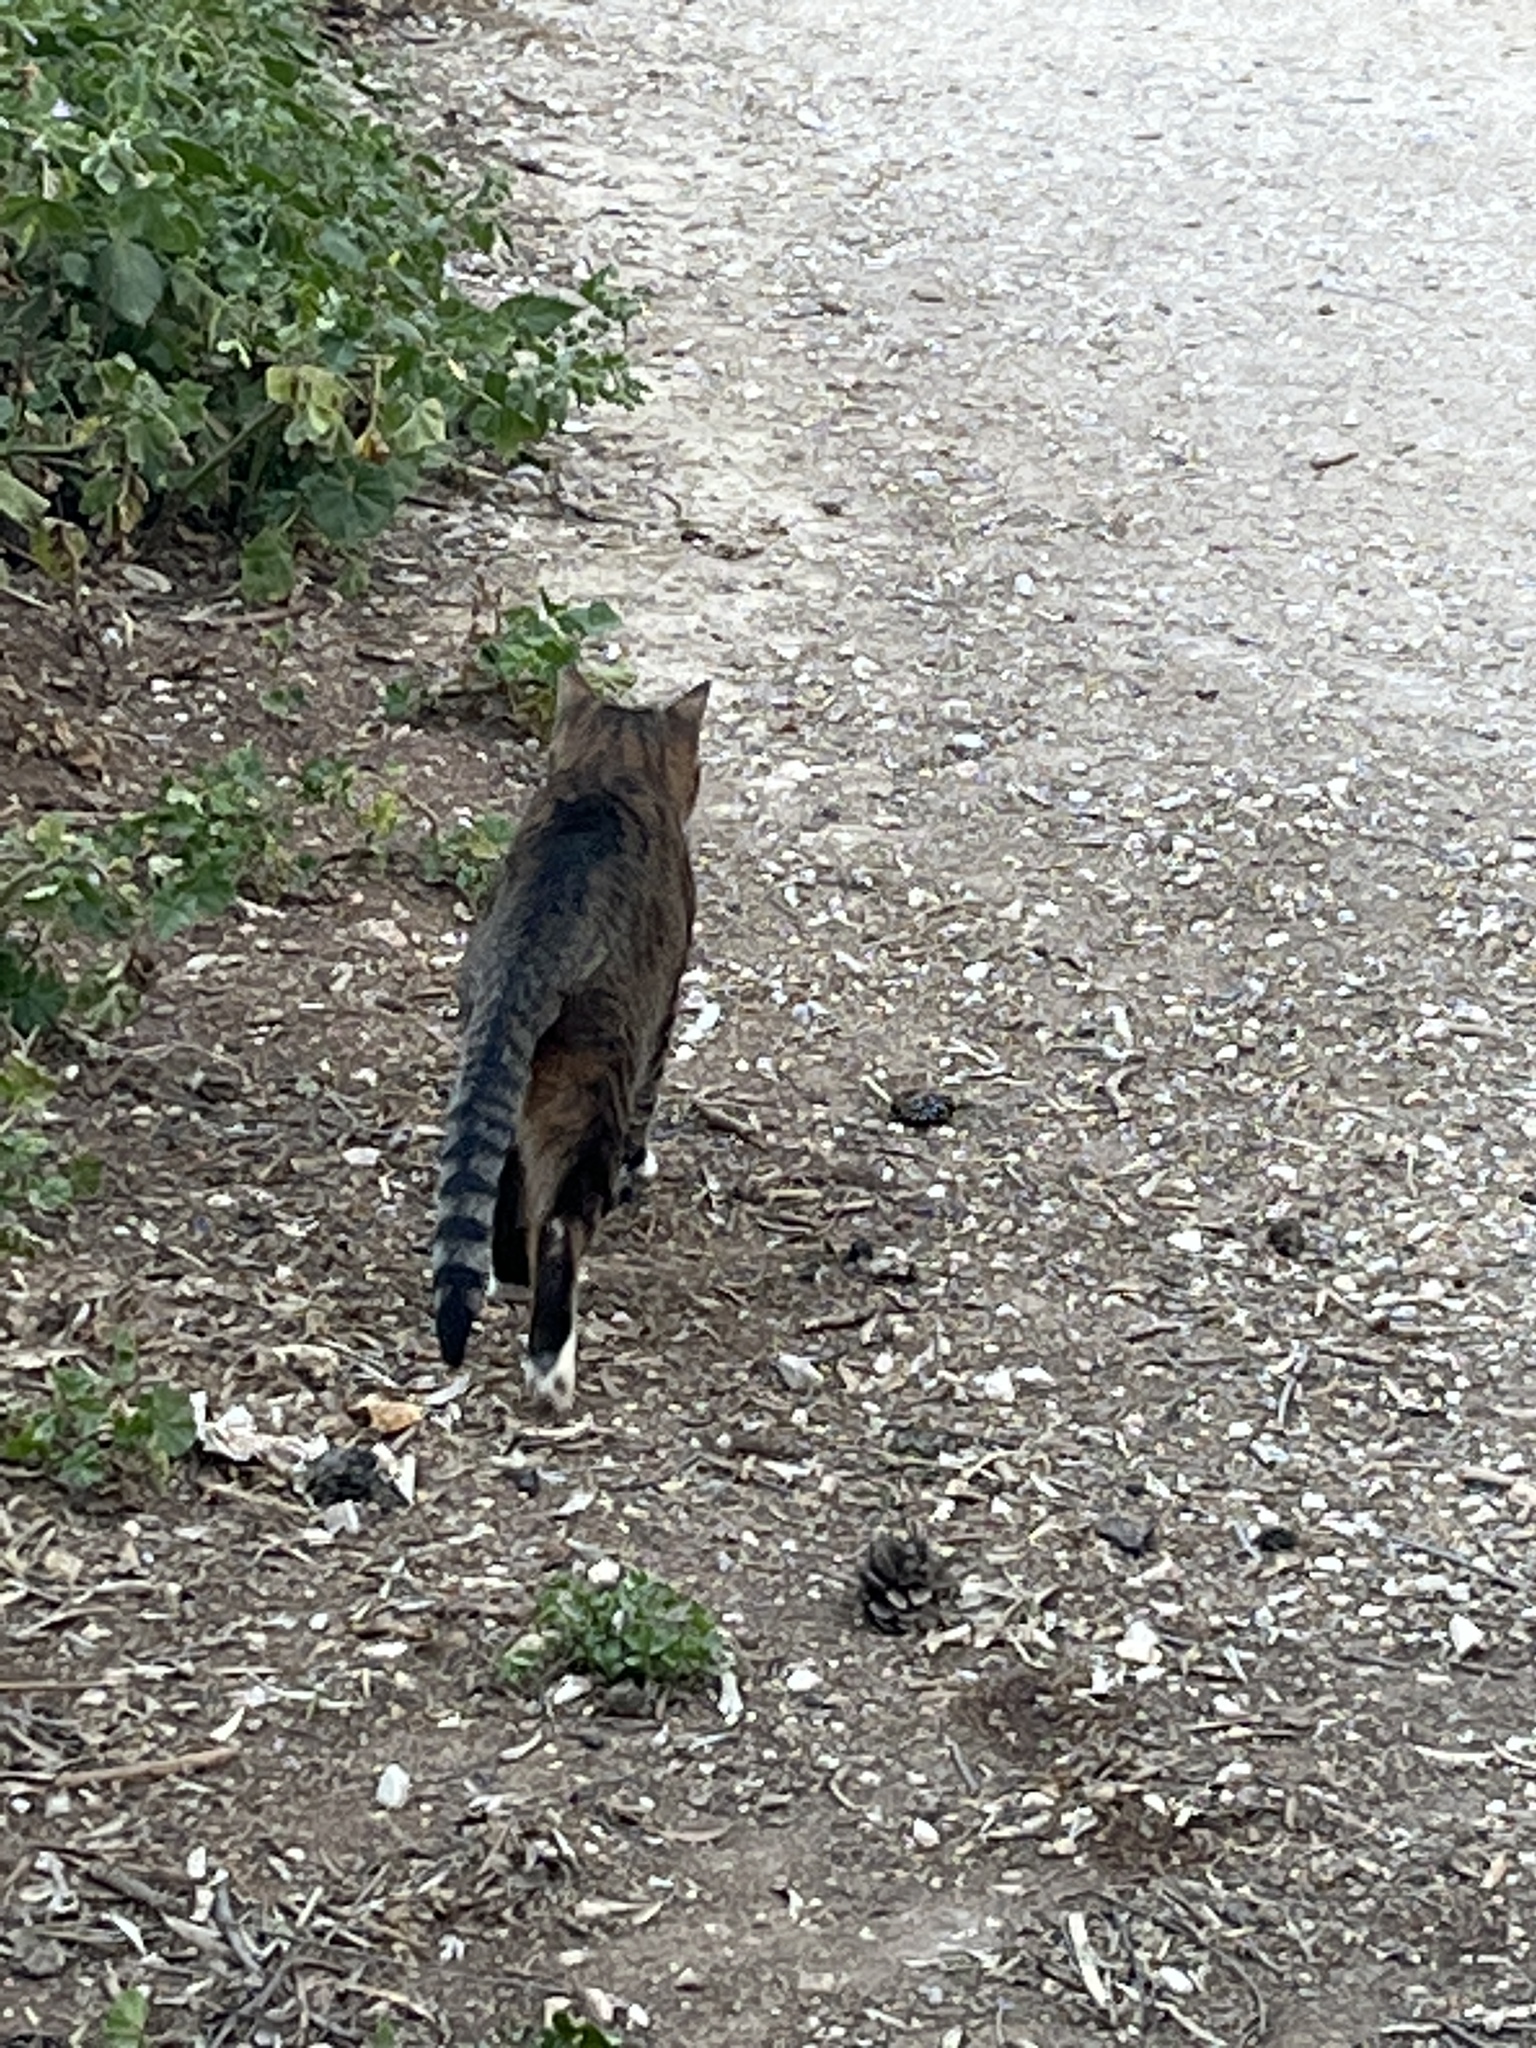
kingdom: Animalia
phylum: Chordata
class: Mammalia
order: Carnivora
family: Felidae
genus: Felis
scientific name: Felis catus
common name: Domestic cat
